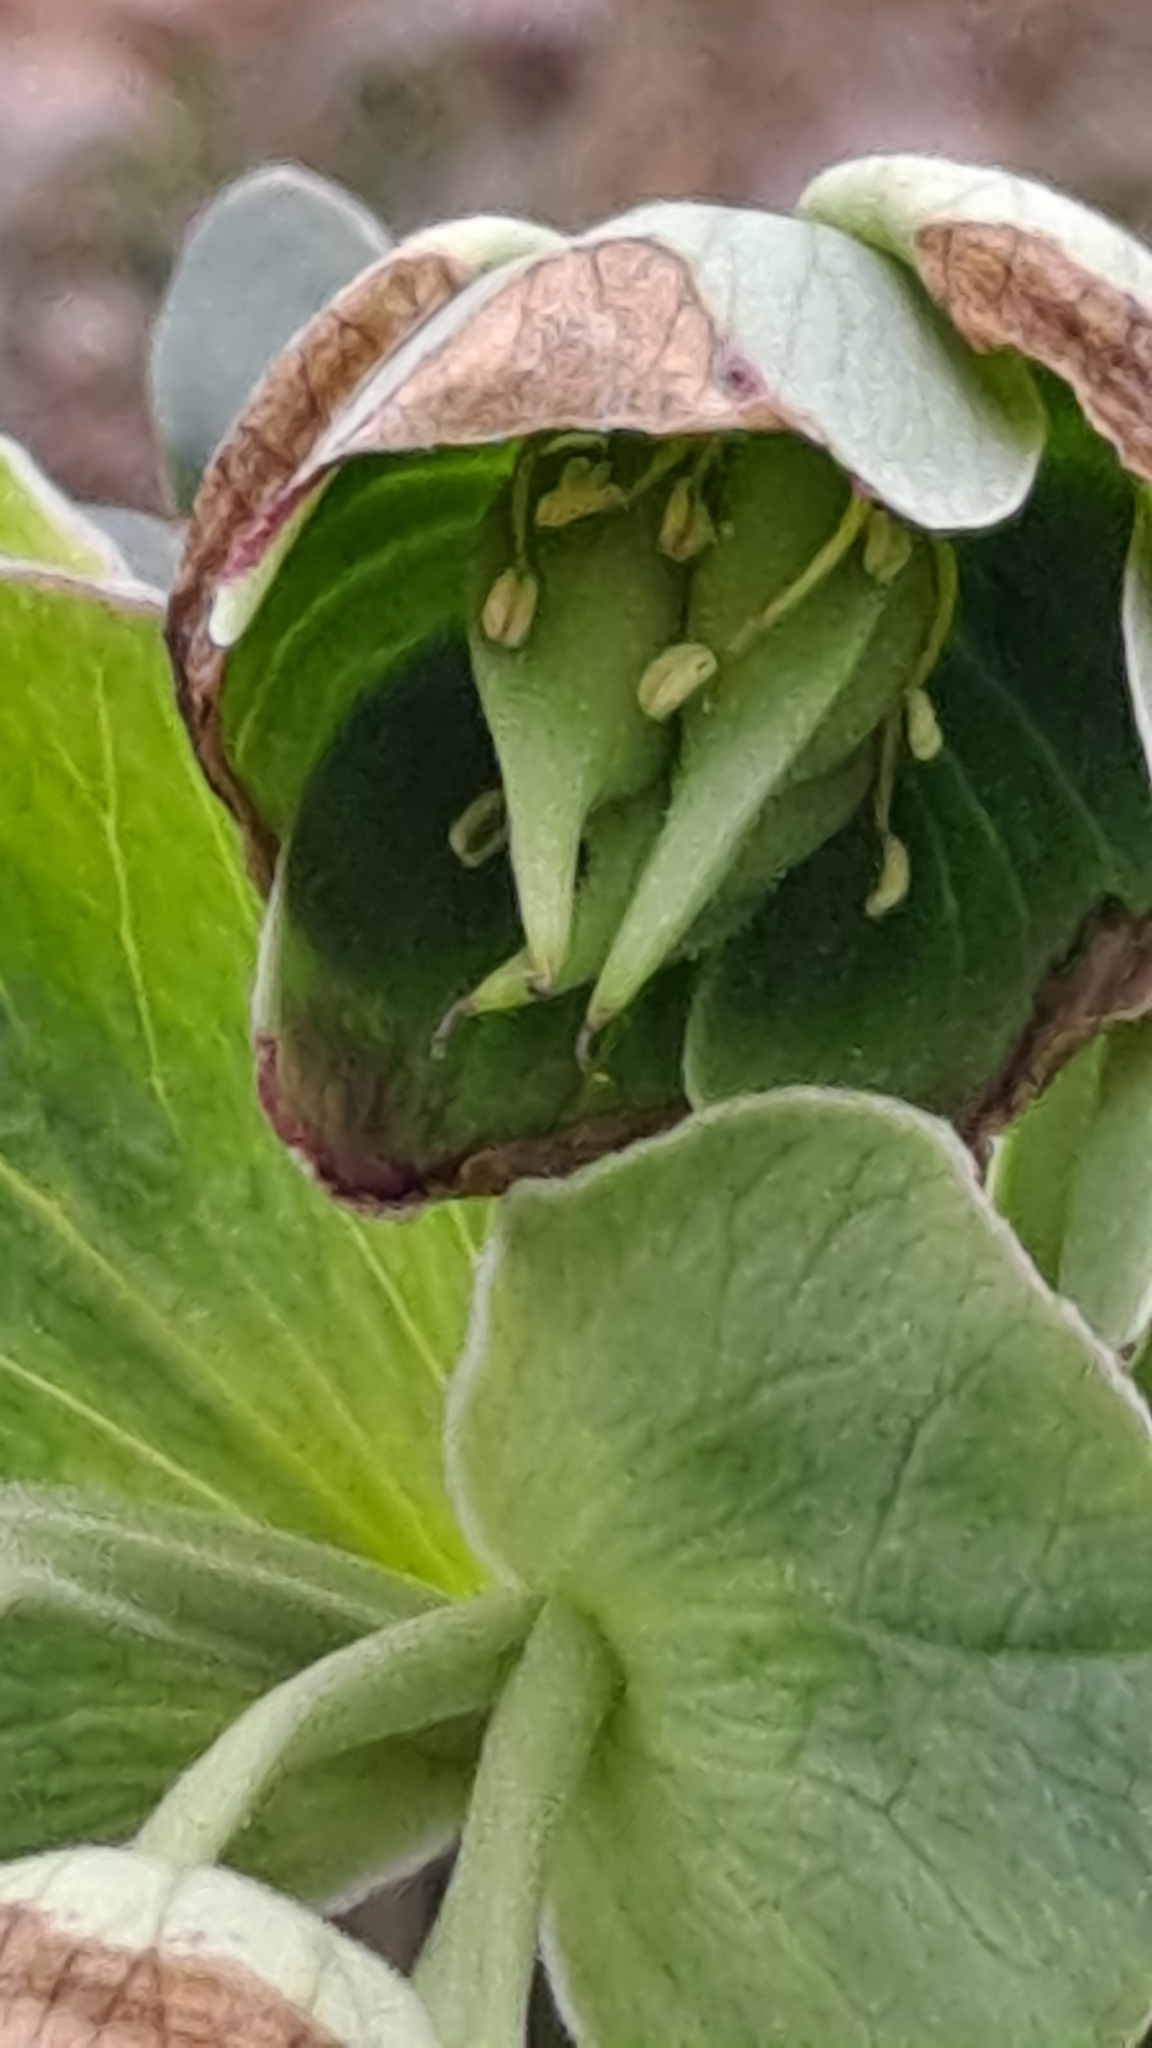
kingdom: Plantae
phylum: Tracheophyta
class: Magnoliopsida
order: Ranunculales
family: Ranunculaceae
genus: Helleborus
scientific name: Helleborus foetidus
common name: Stinking hellebore
